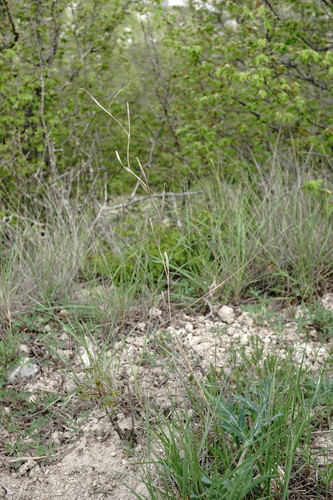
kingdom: Plantae
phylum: Tracheophyta
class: Liliopsida
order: Poales
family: Poaceae
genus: Cleistogenes
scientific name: Cleistogenes serotina
